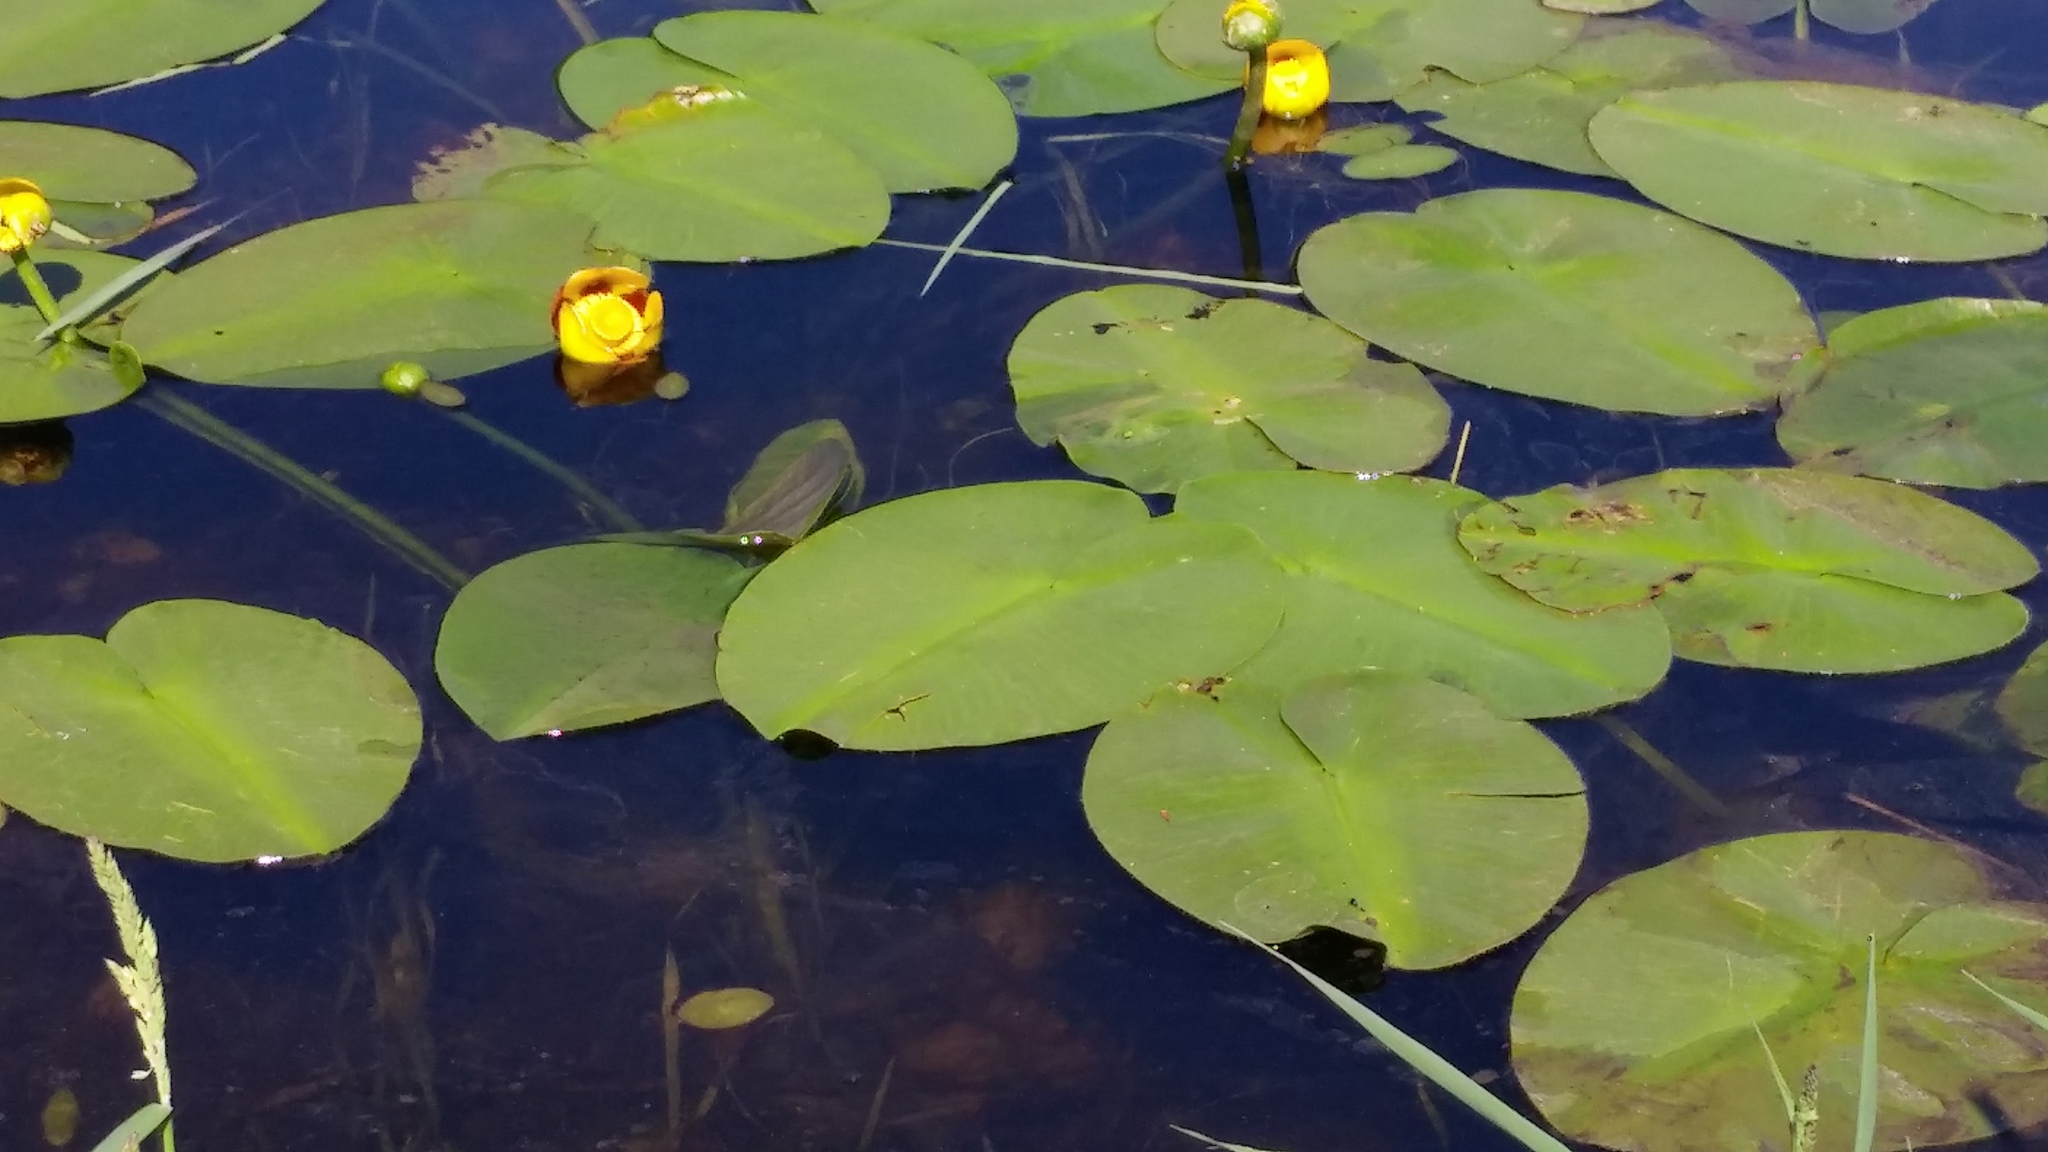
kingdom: Plantae
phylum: Tracheophyta
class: Magnoliopsida
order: Nymphaeales
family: Nymphaeaceae
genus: Nuphar
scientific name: Nuphar variegata
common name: Beaver-root
